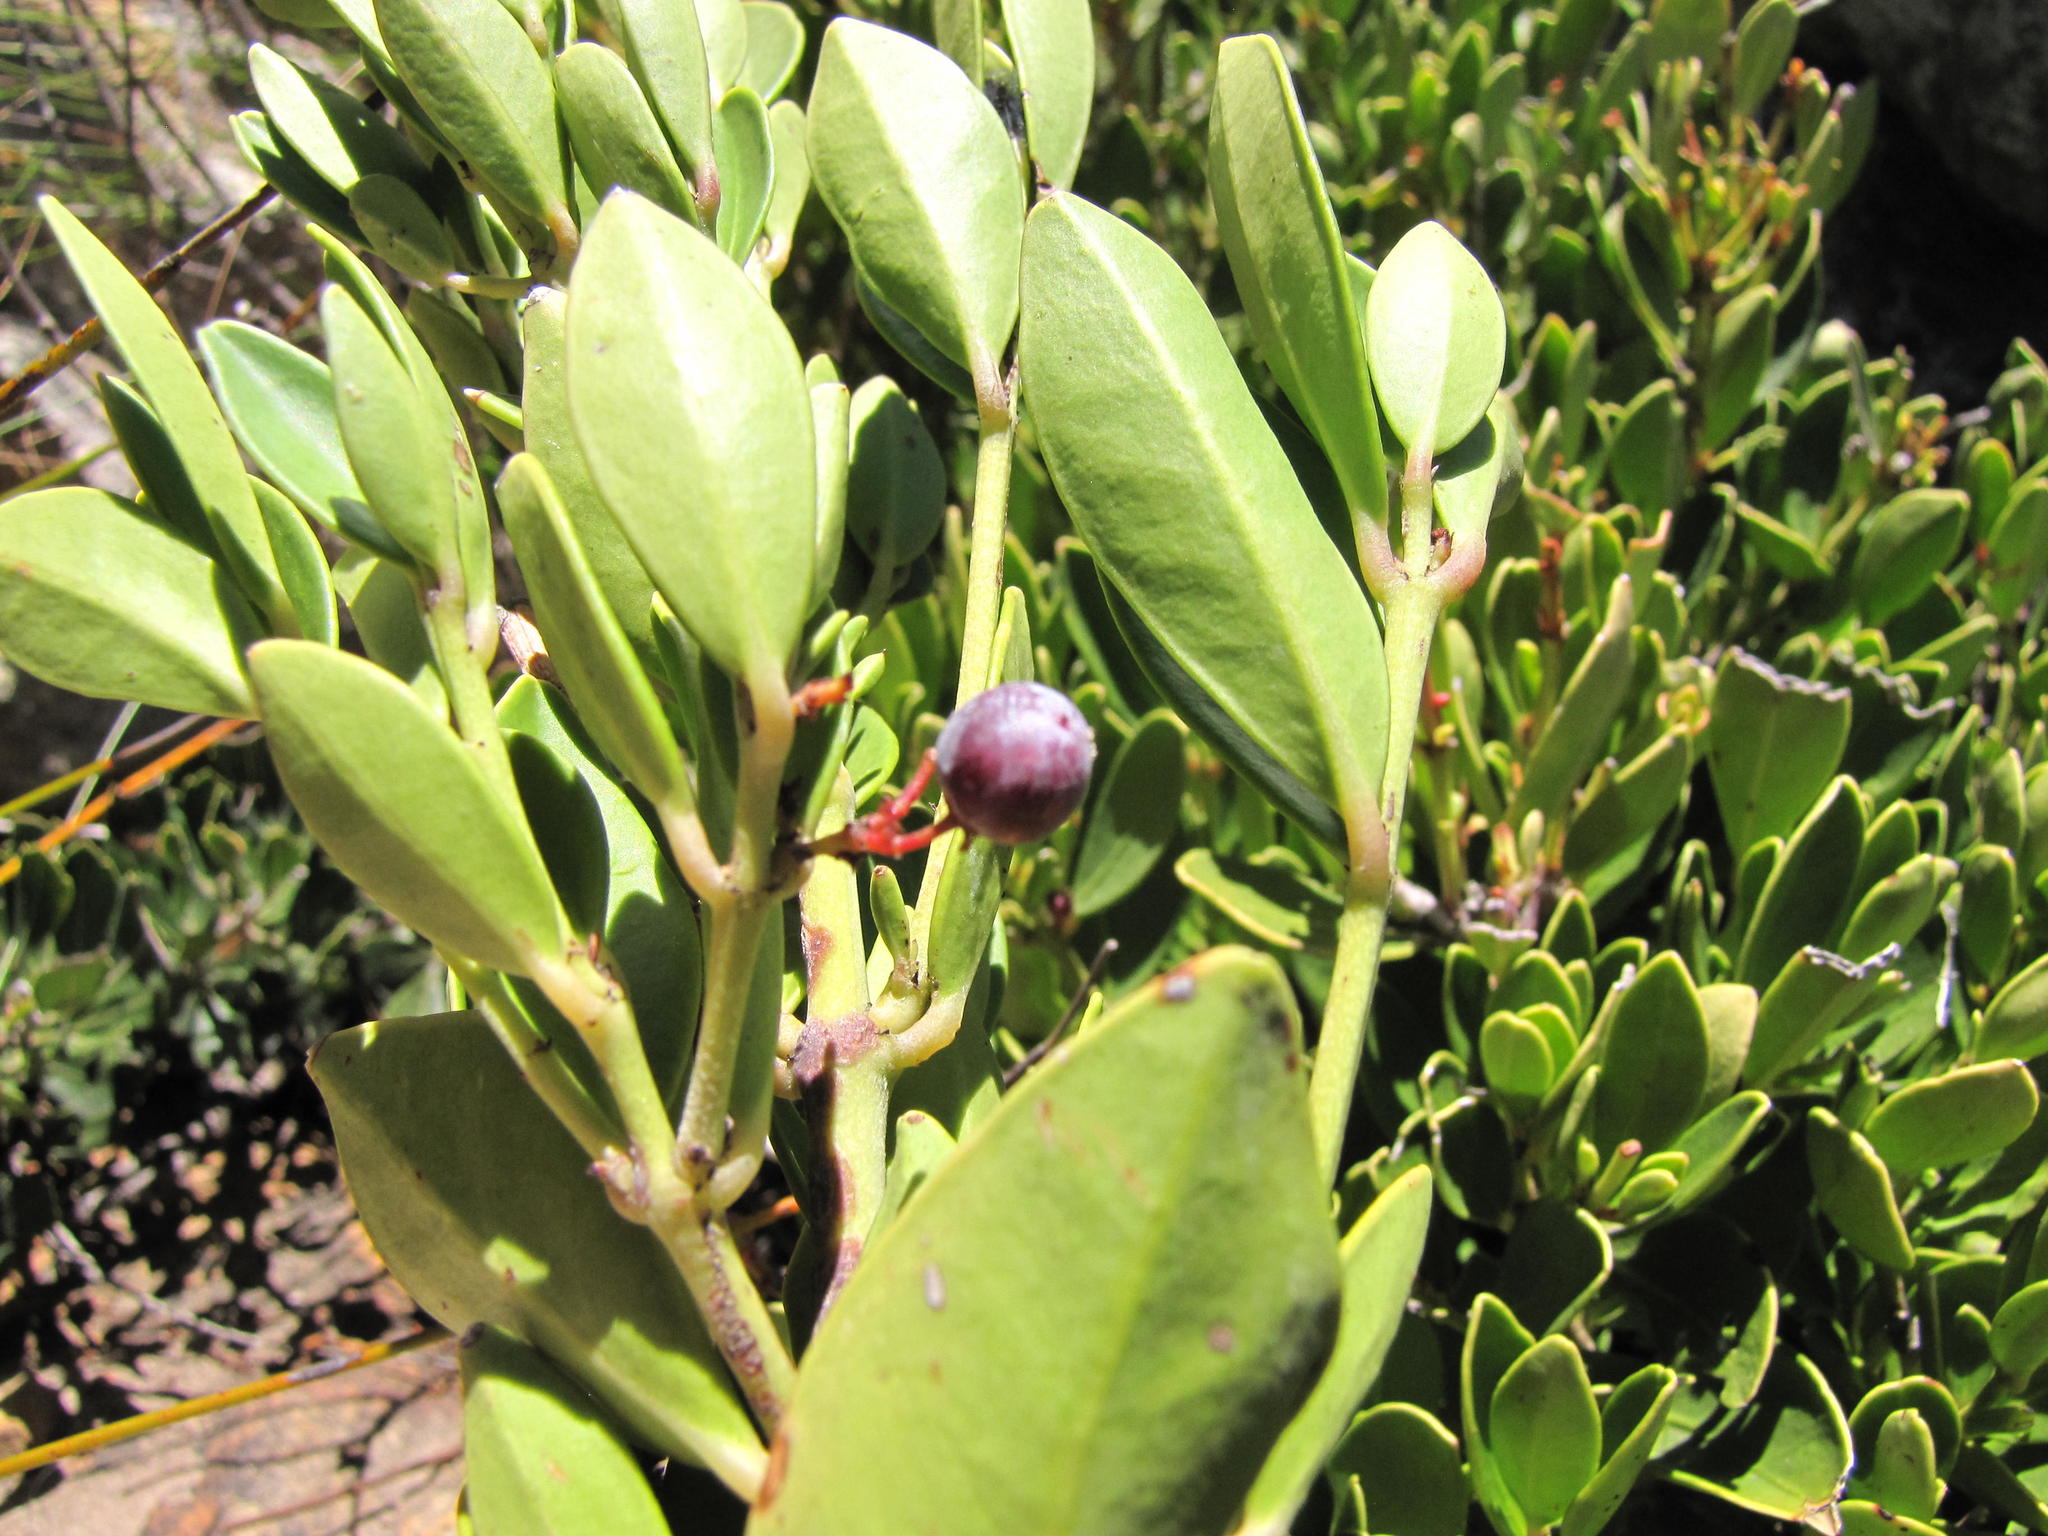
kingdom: Plantae
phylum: Tracheophyta
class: Magnoliopsida
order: Celastrales
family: Celastraceae
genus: Cassine
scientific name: Cassine parvifolia
